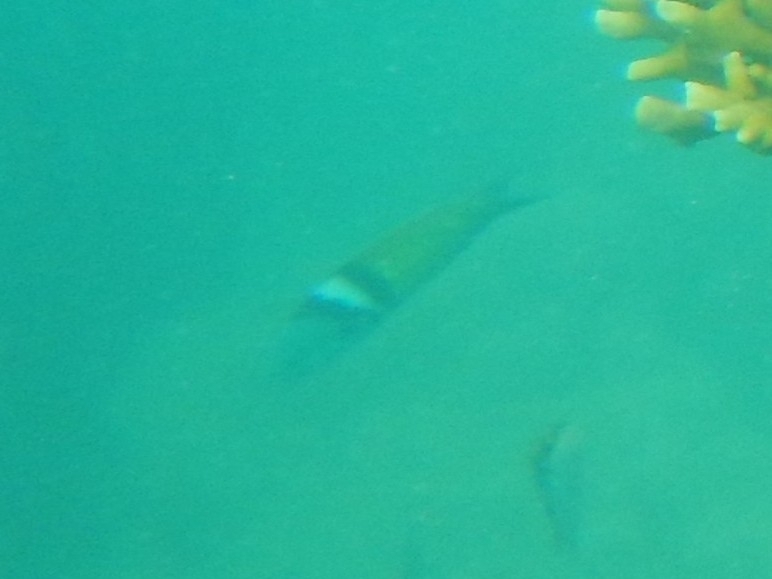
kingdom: Animalia
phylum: Chordata
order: Perciformes
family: Labridae
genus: Thalassoma
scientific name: Thalassoma bifasciatum
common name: Bluehead wrasse
